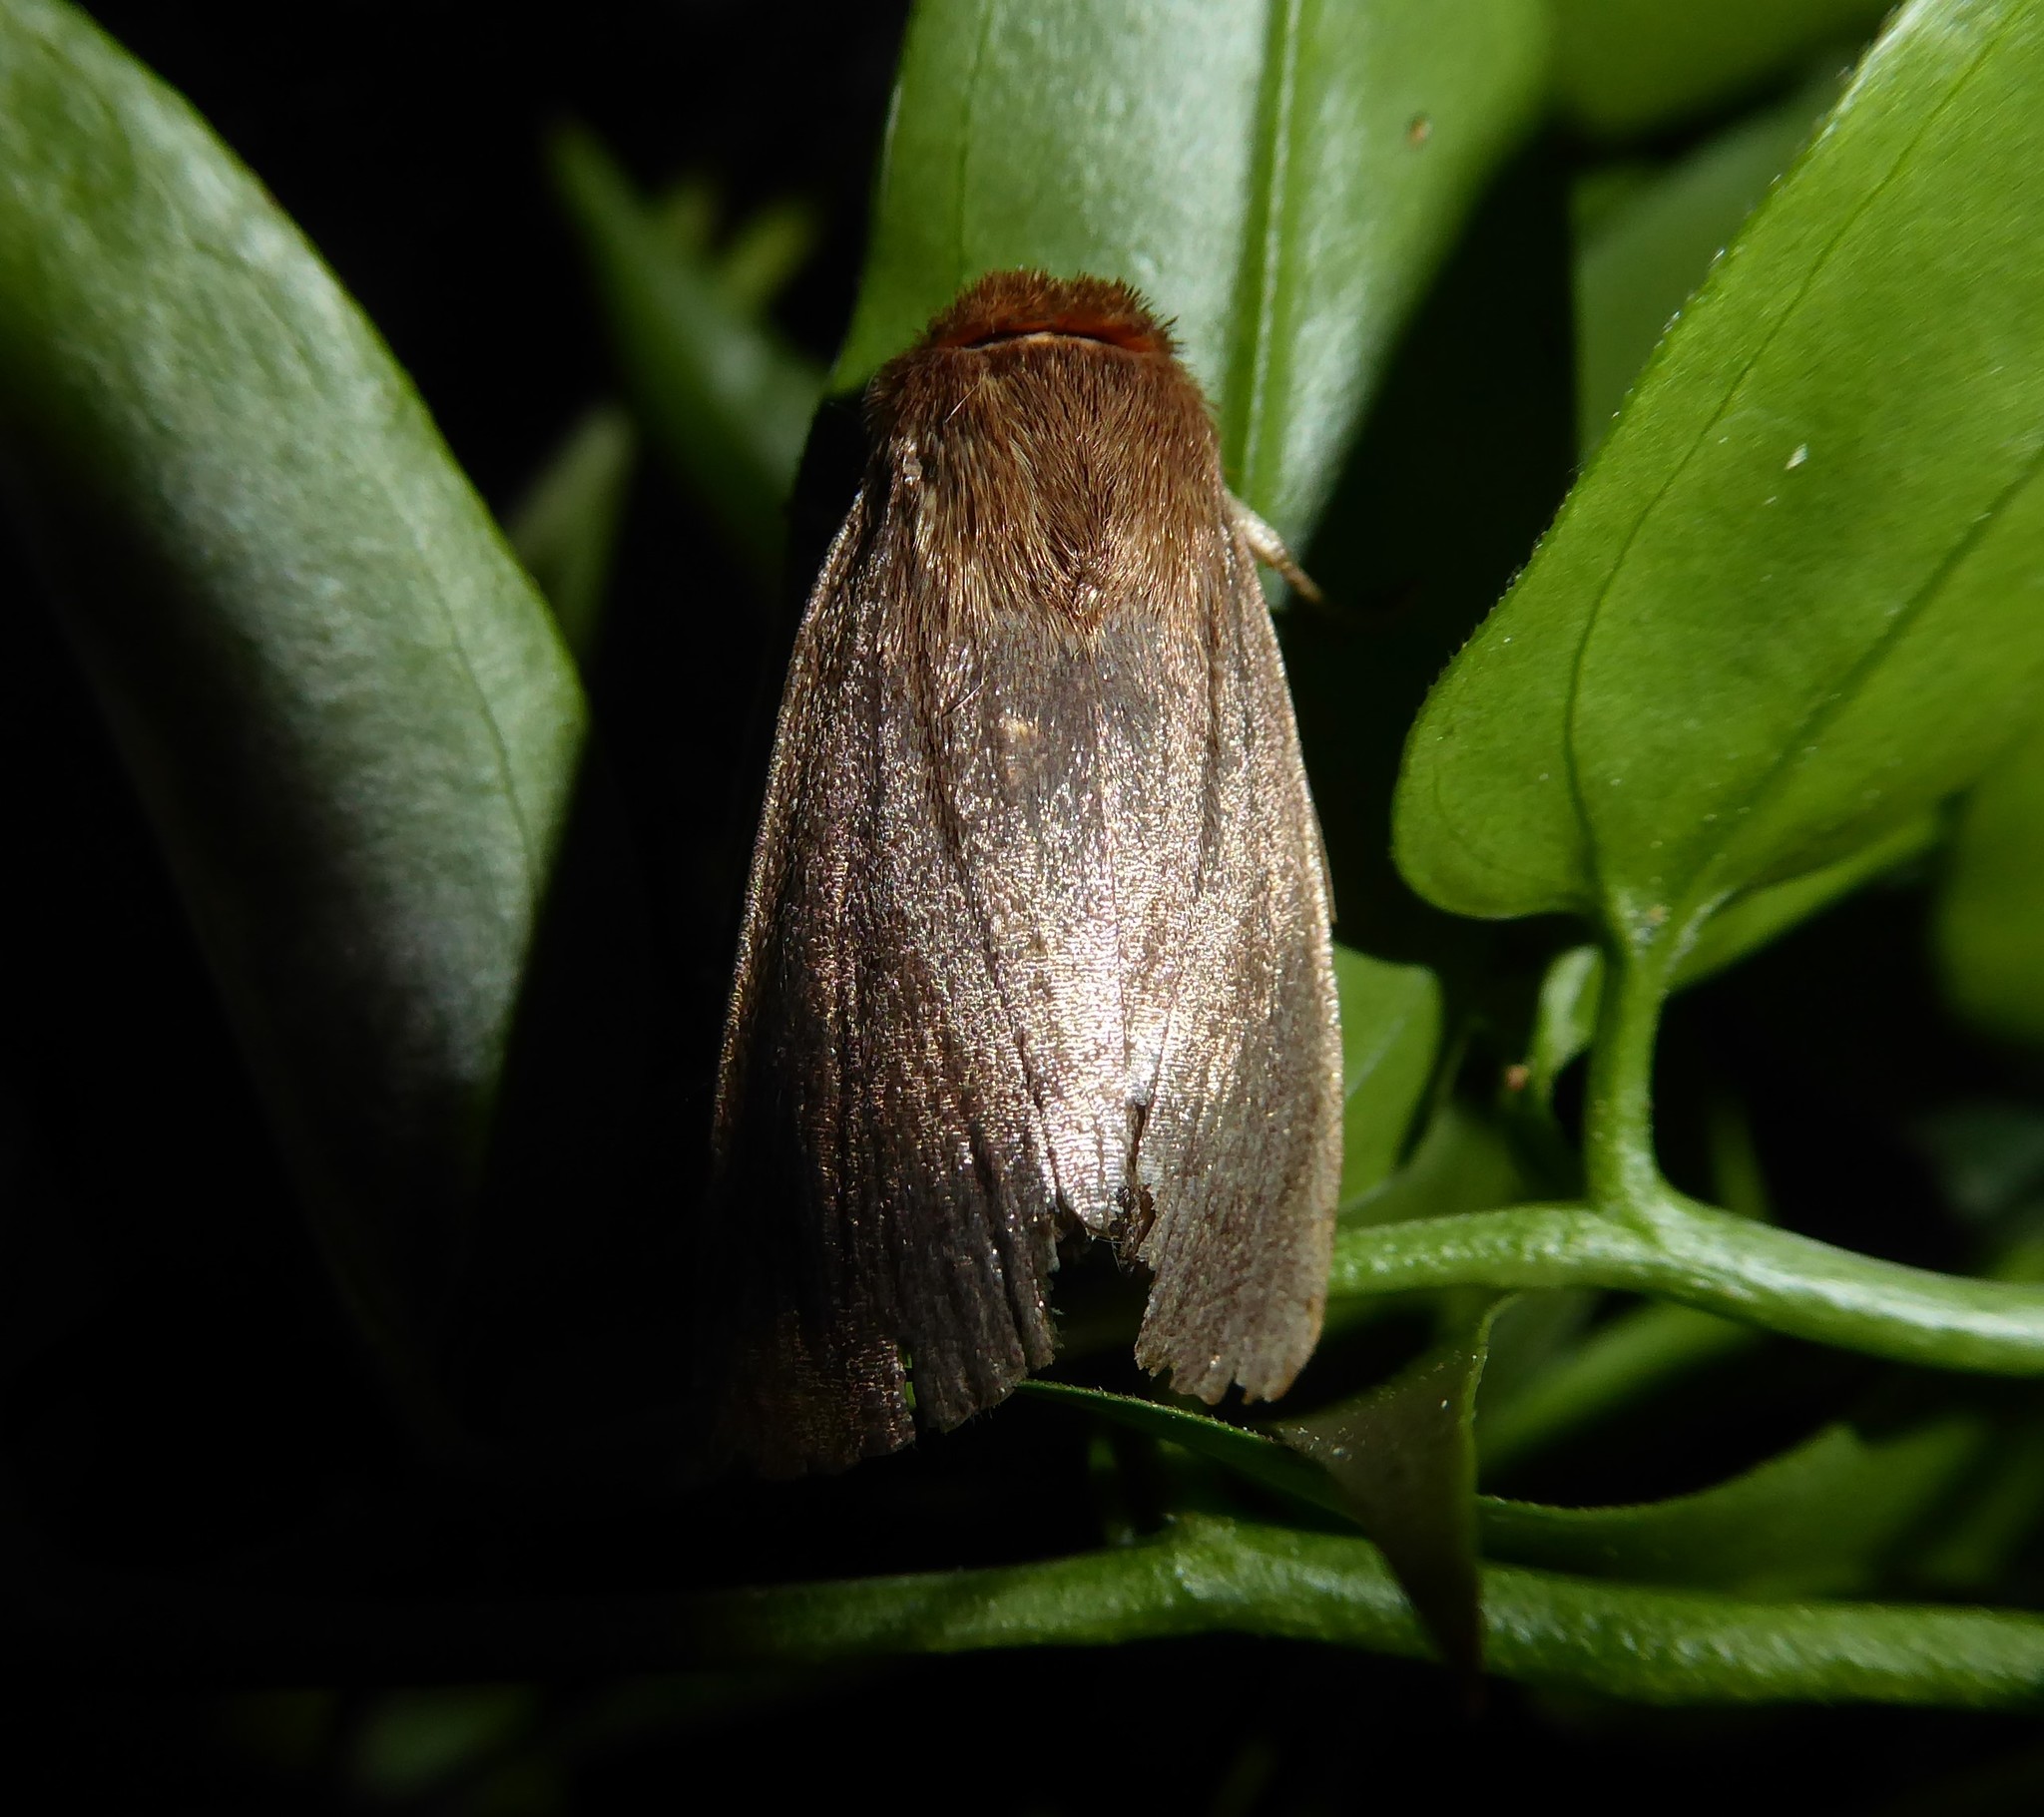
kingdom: Animalia
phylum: Arthropoda
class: Insecta
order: Lepidoptera
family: Noctuidae
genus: Bityla
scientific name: Bityla defigurata
